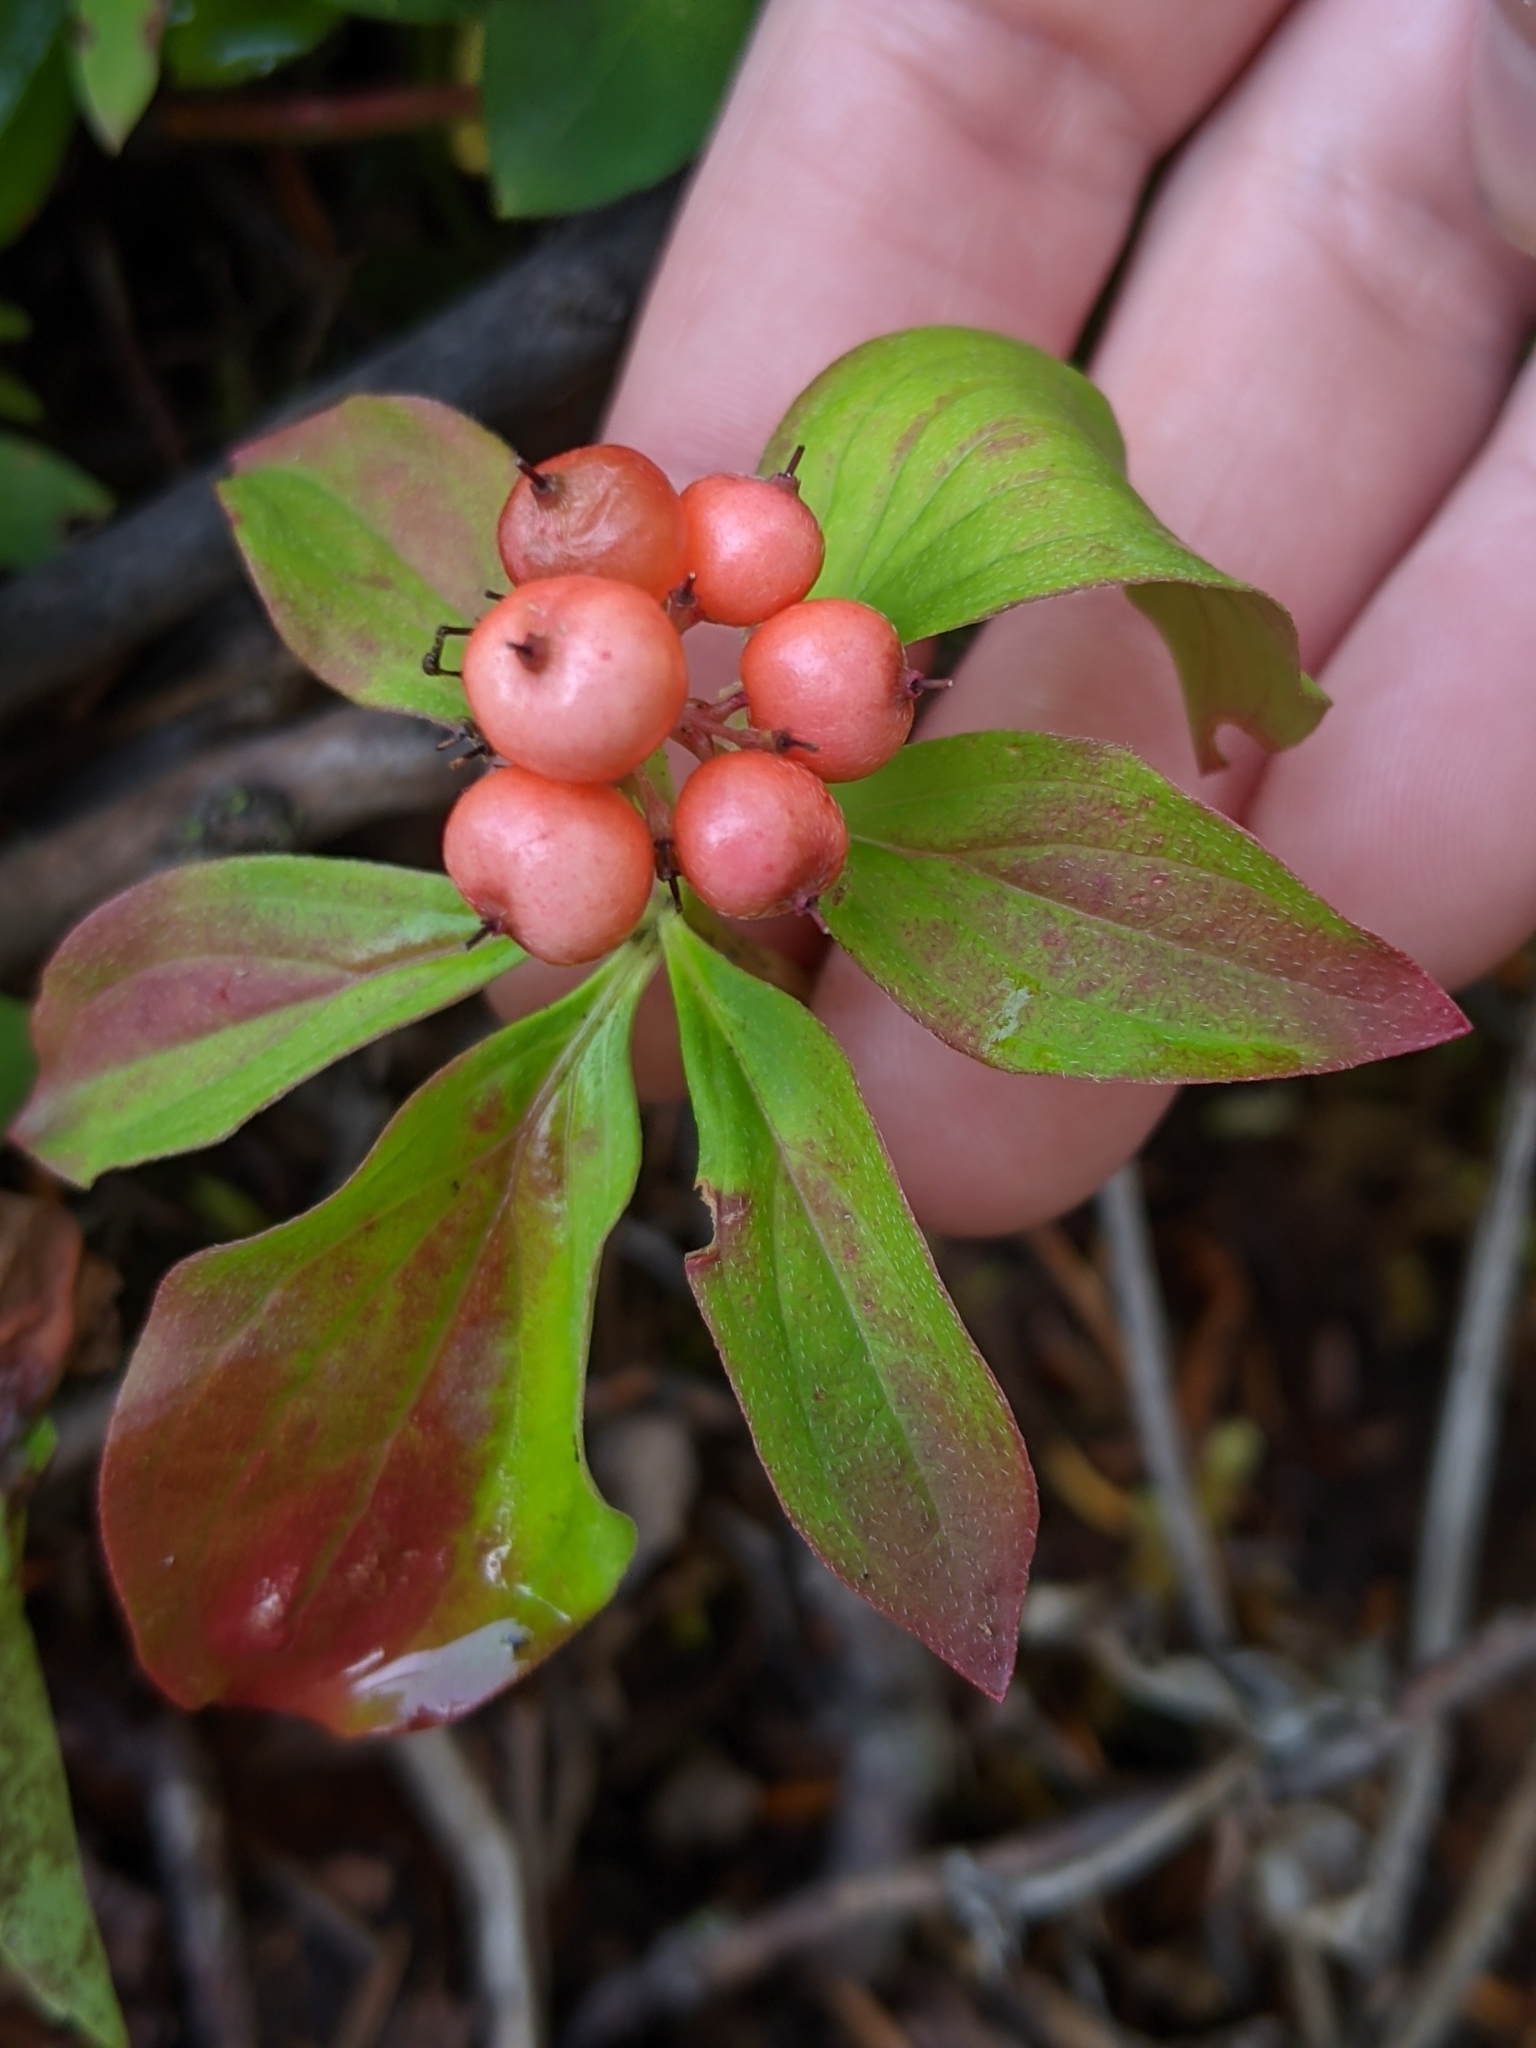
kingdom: Plantae
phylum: Tracheophyta
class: Magnoliopsida
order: Cornales
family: Cornaceae
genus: Cornus
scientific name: Cornus unalaschkensis
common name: Alaska bunchberry
